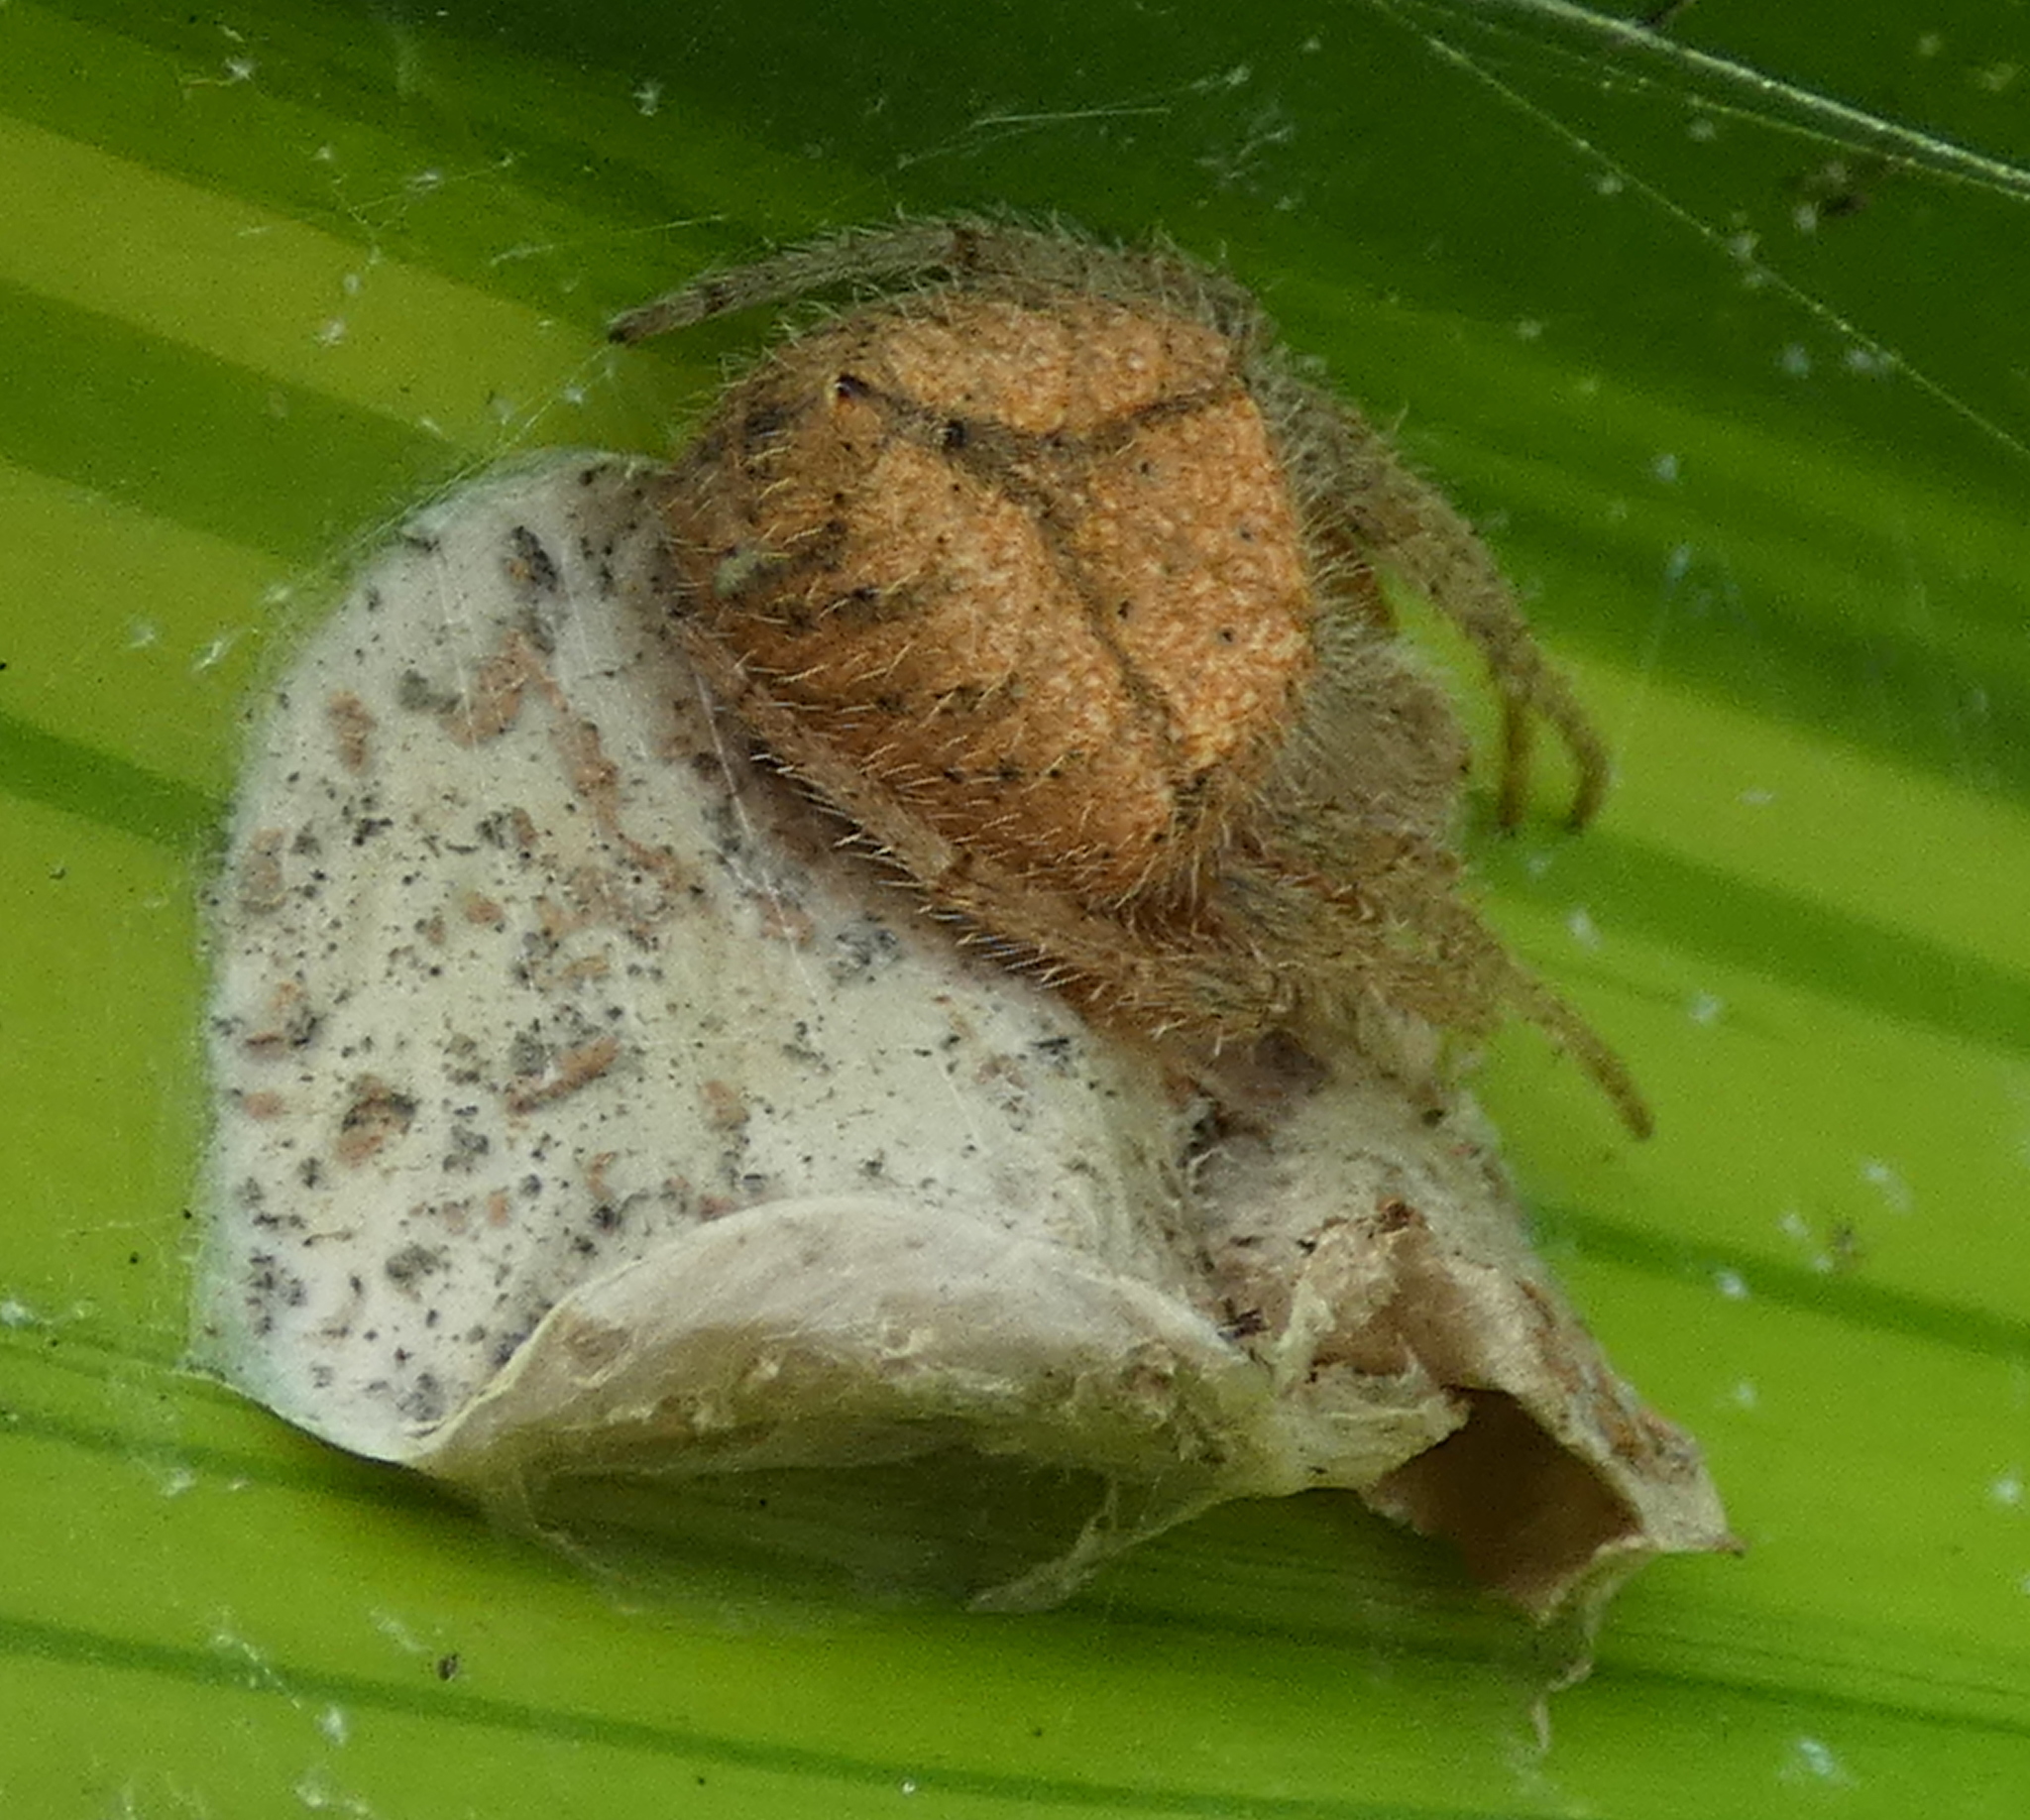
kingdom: Animalia
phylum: Arthropoda
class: Arachnida
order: Araneae
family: Araneidae
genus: Eriophora
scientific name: Eriophora edax
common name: Orb weavers
